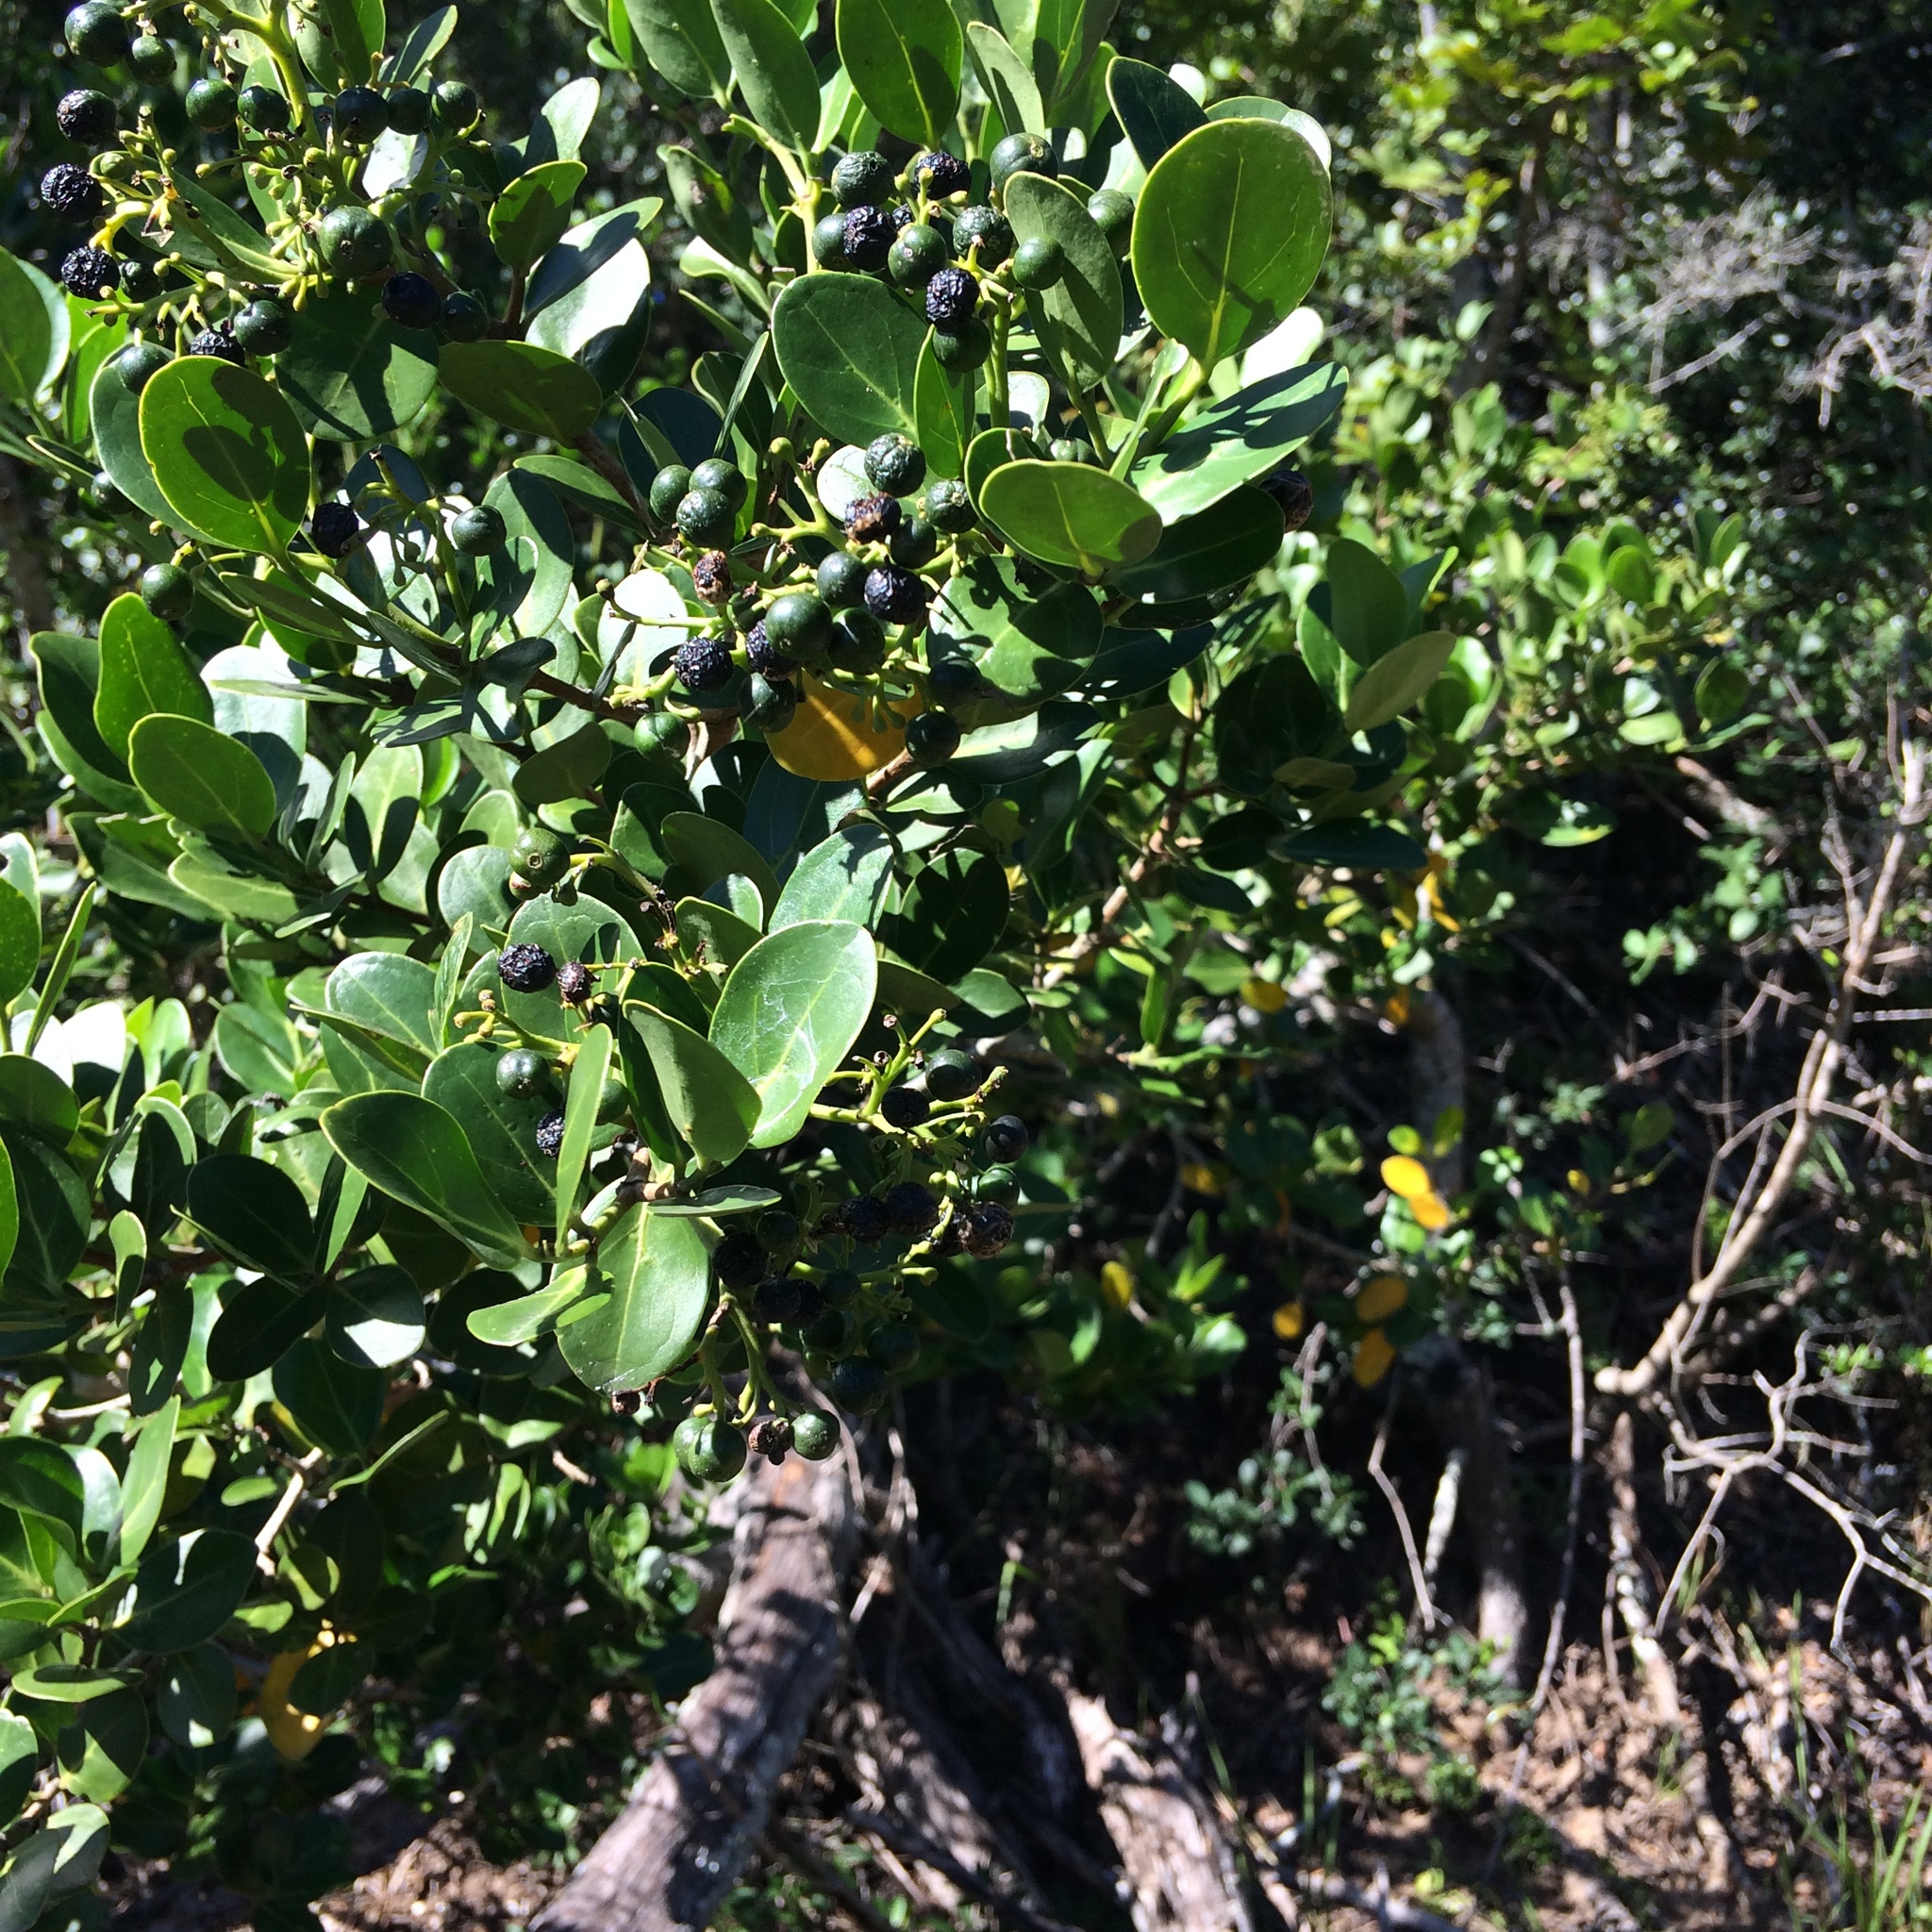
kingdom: Plantae
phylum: Tracheophyta
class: Magnoliopsida
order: Gentianales
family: Rubiaceae
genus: Psydrax
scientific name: Psydrax obovatus
